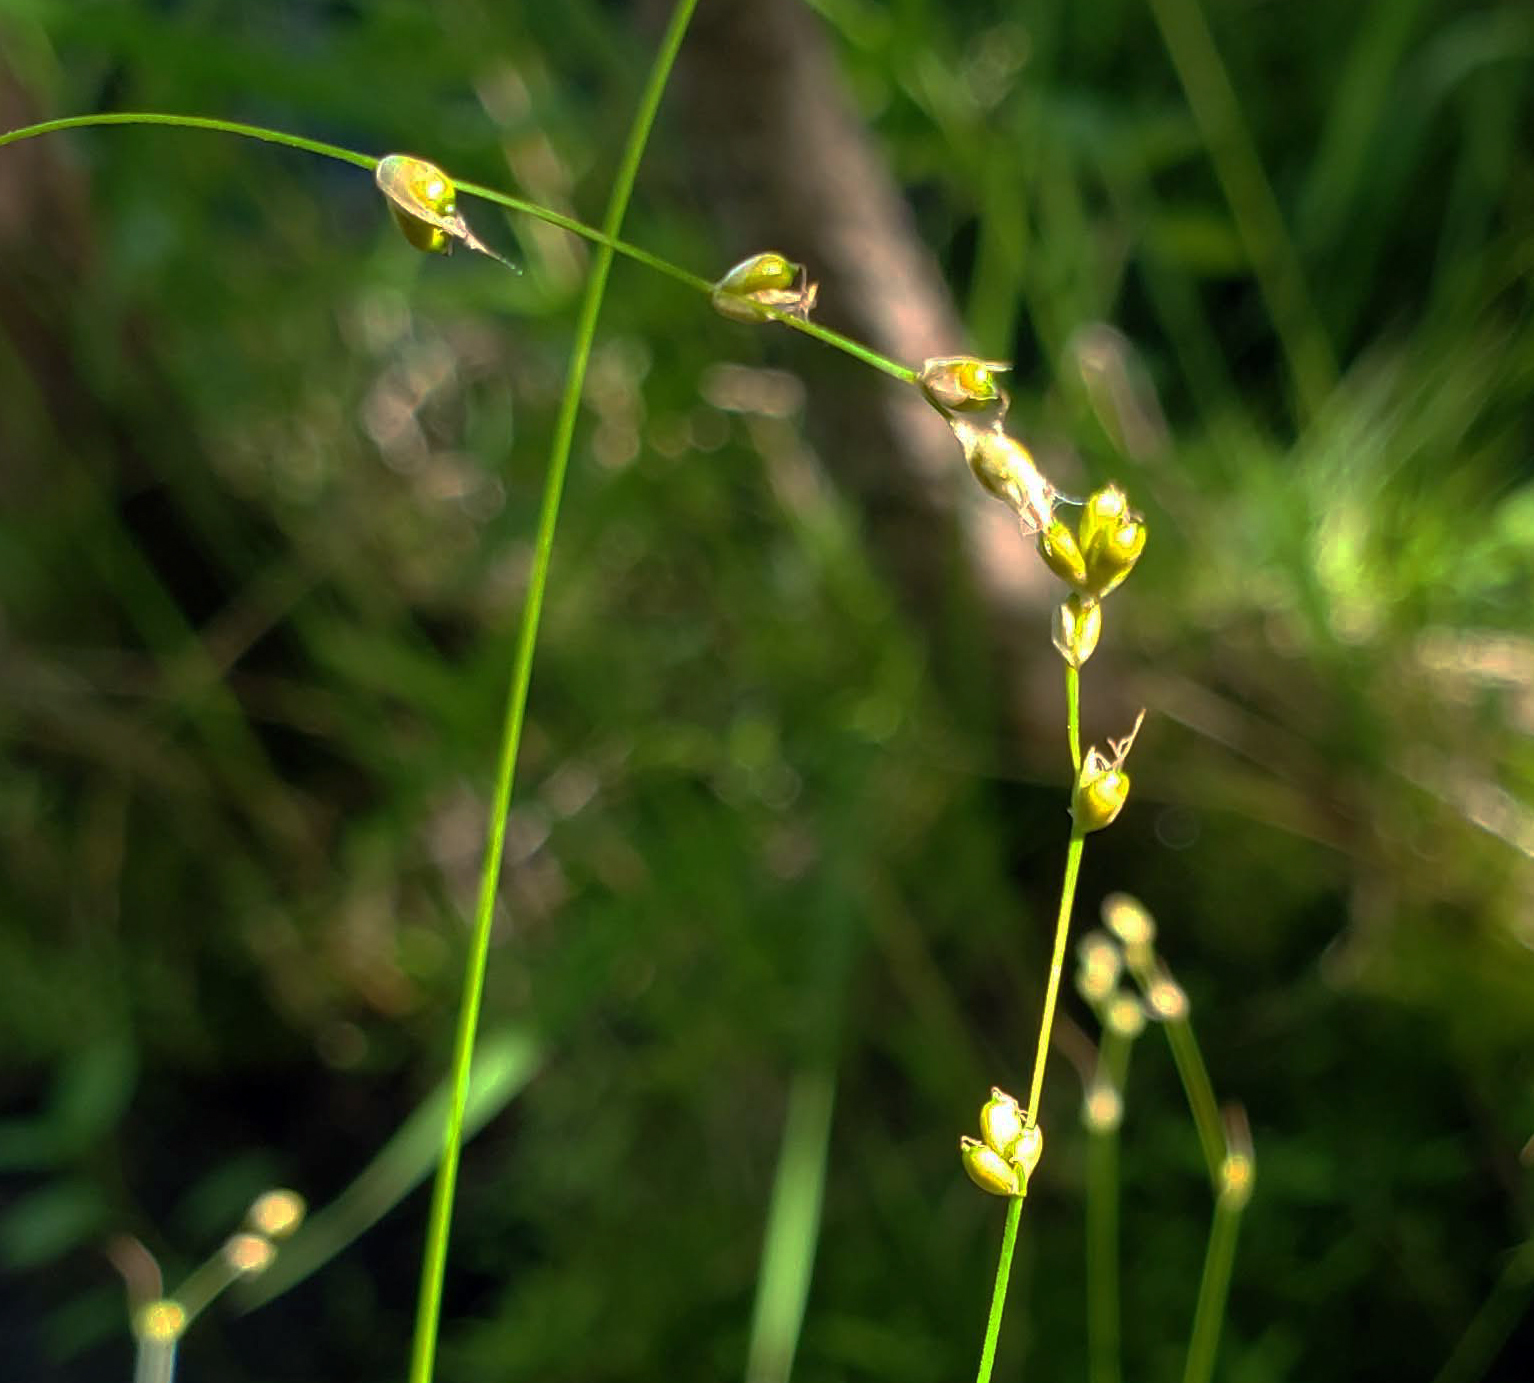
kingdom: Plantae
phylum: Tracheophyta
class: Liliopsida
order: Poales
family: Cyperaceae
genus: Carex
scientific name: Carex disperma
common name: Short-leaved sedge
